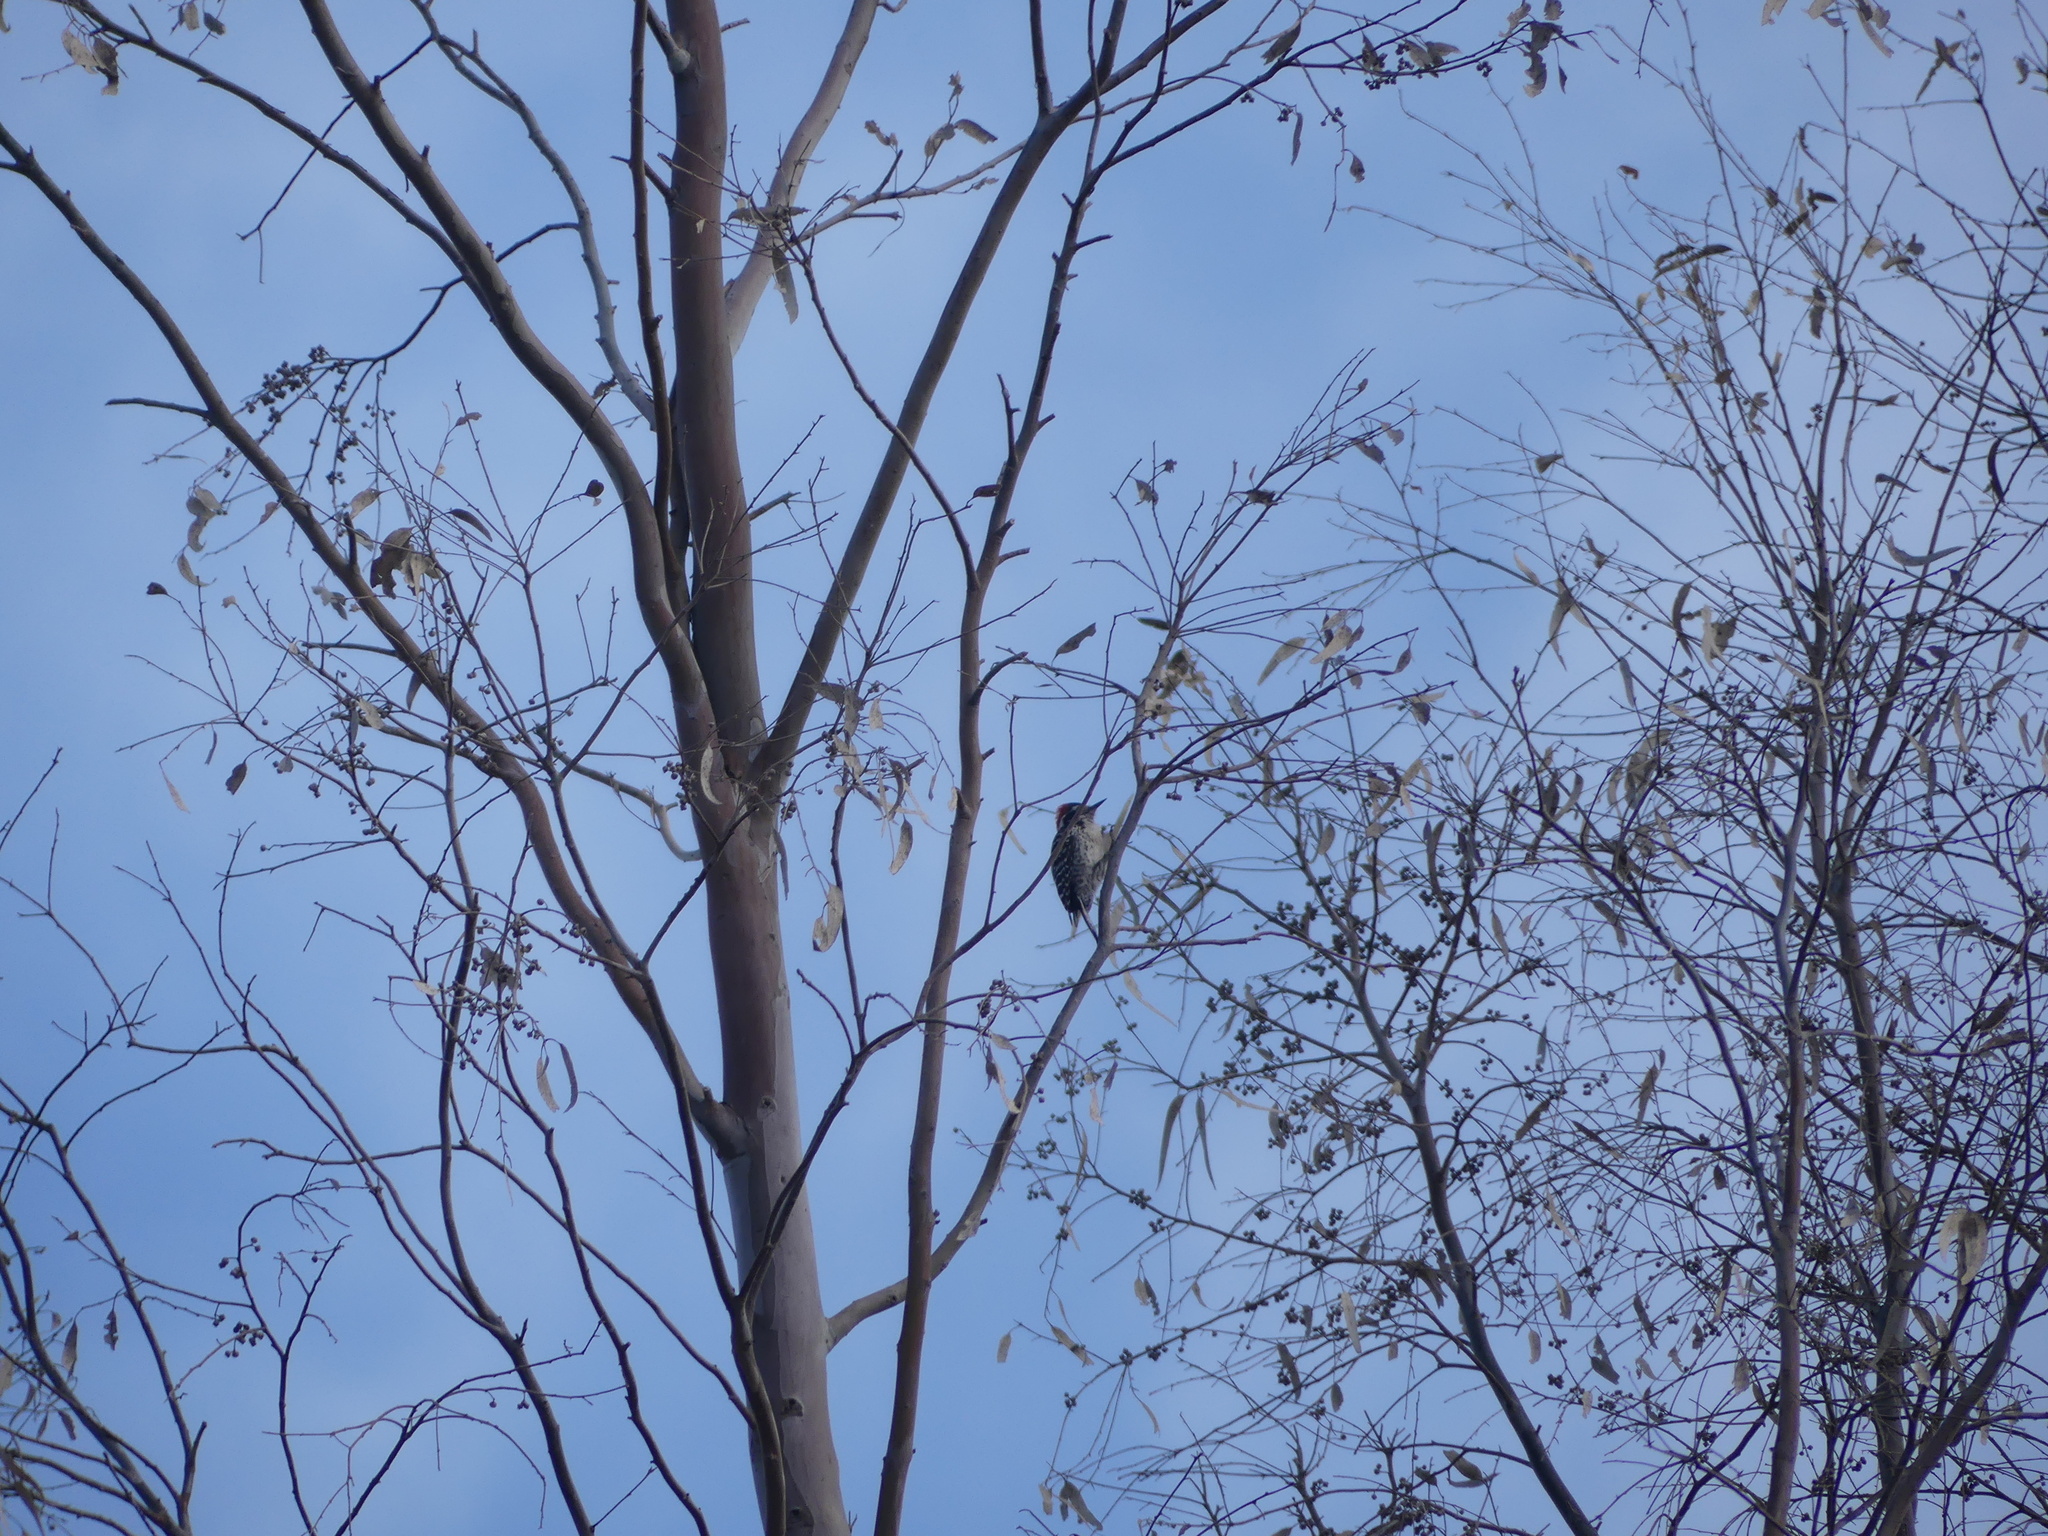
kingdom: Animalia
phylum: Chordata
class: Aves
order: Piciformes
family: Picidae
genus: Dryobates
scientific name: Dryobates nuttallii
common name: Nuttall's woodpecker
